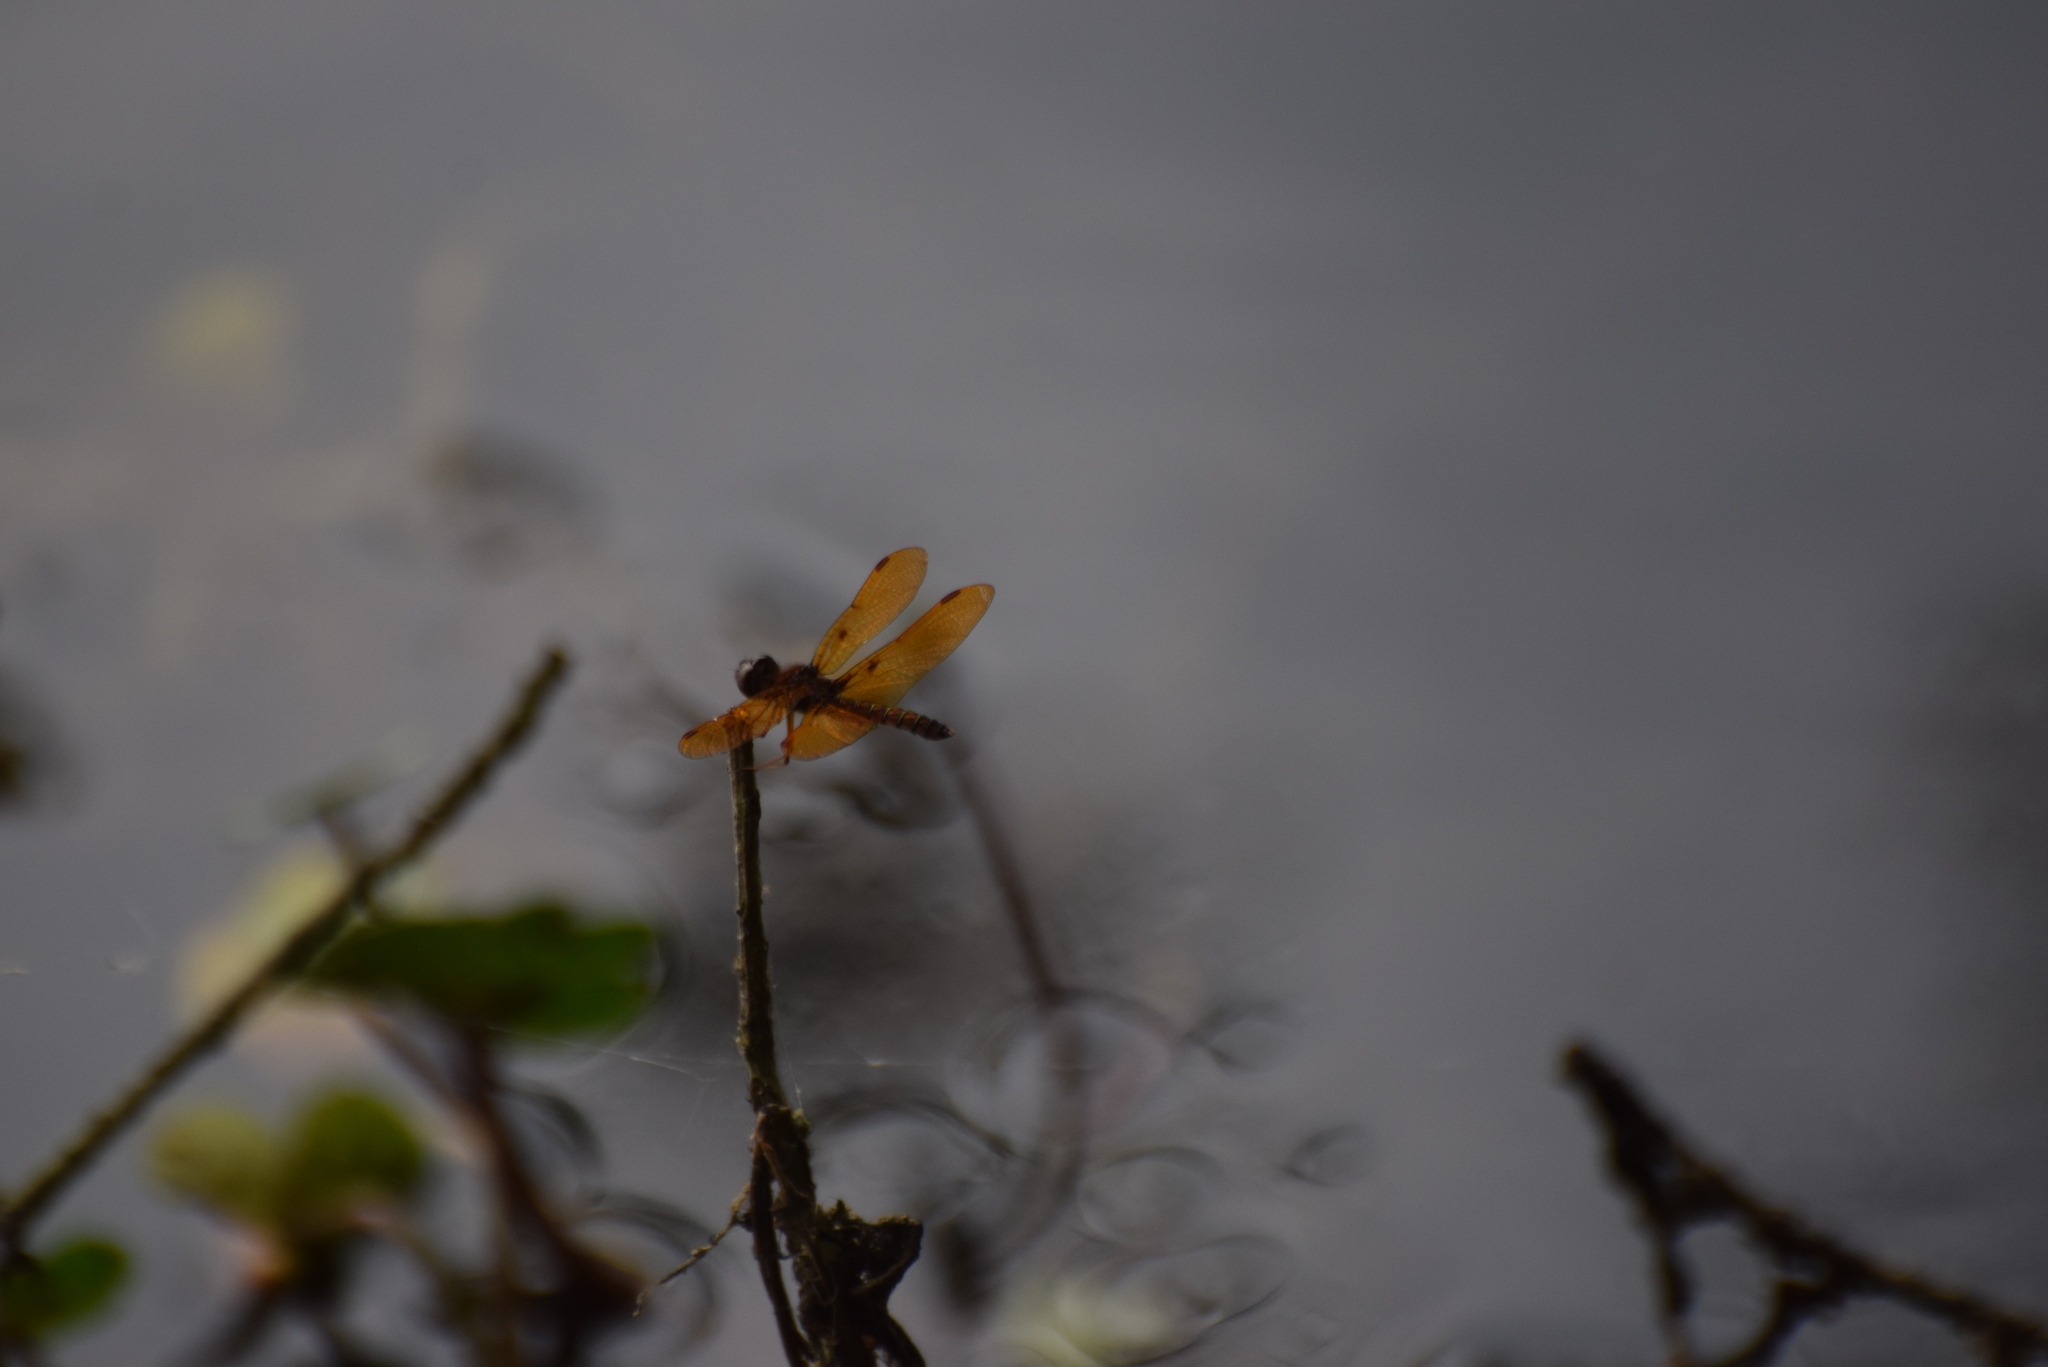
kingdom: Animalia
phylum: Arthropoda
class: Insecta
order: Odonata
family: Libellulidae
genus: Perithemis
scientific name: Perithemis tenera
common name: Eastern amberwing
